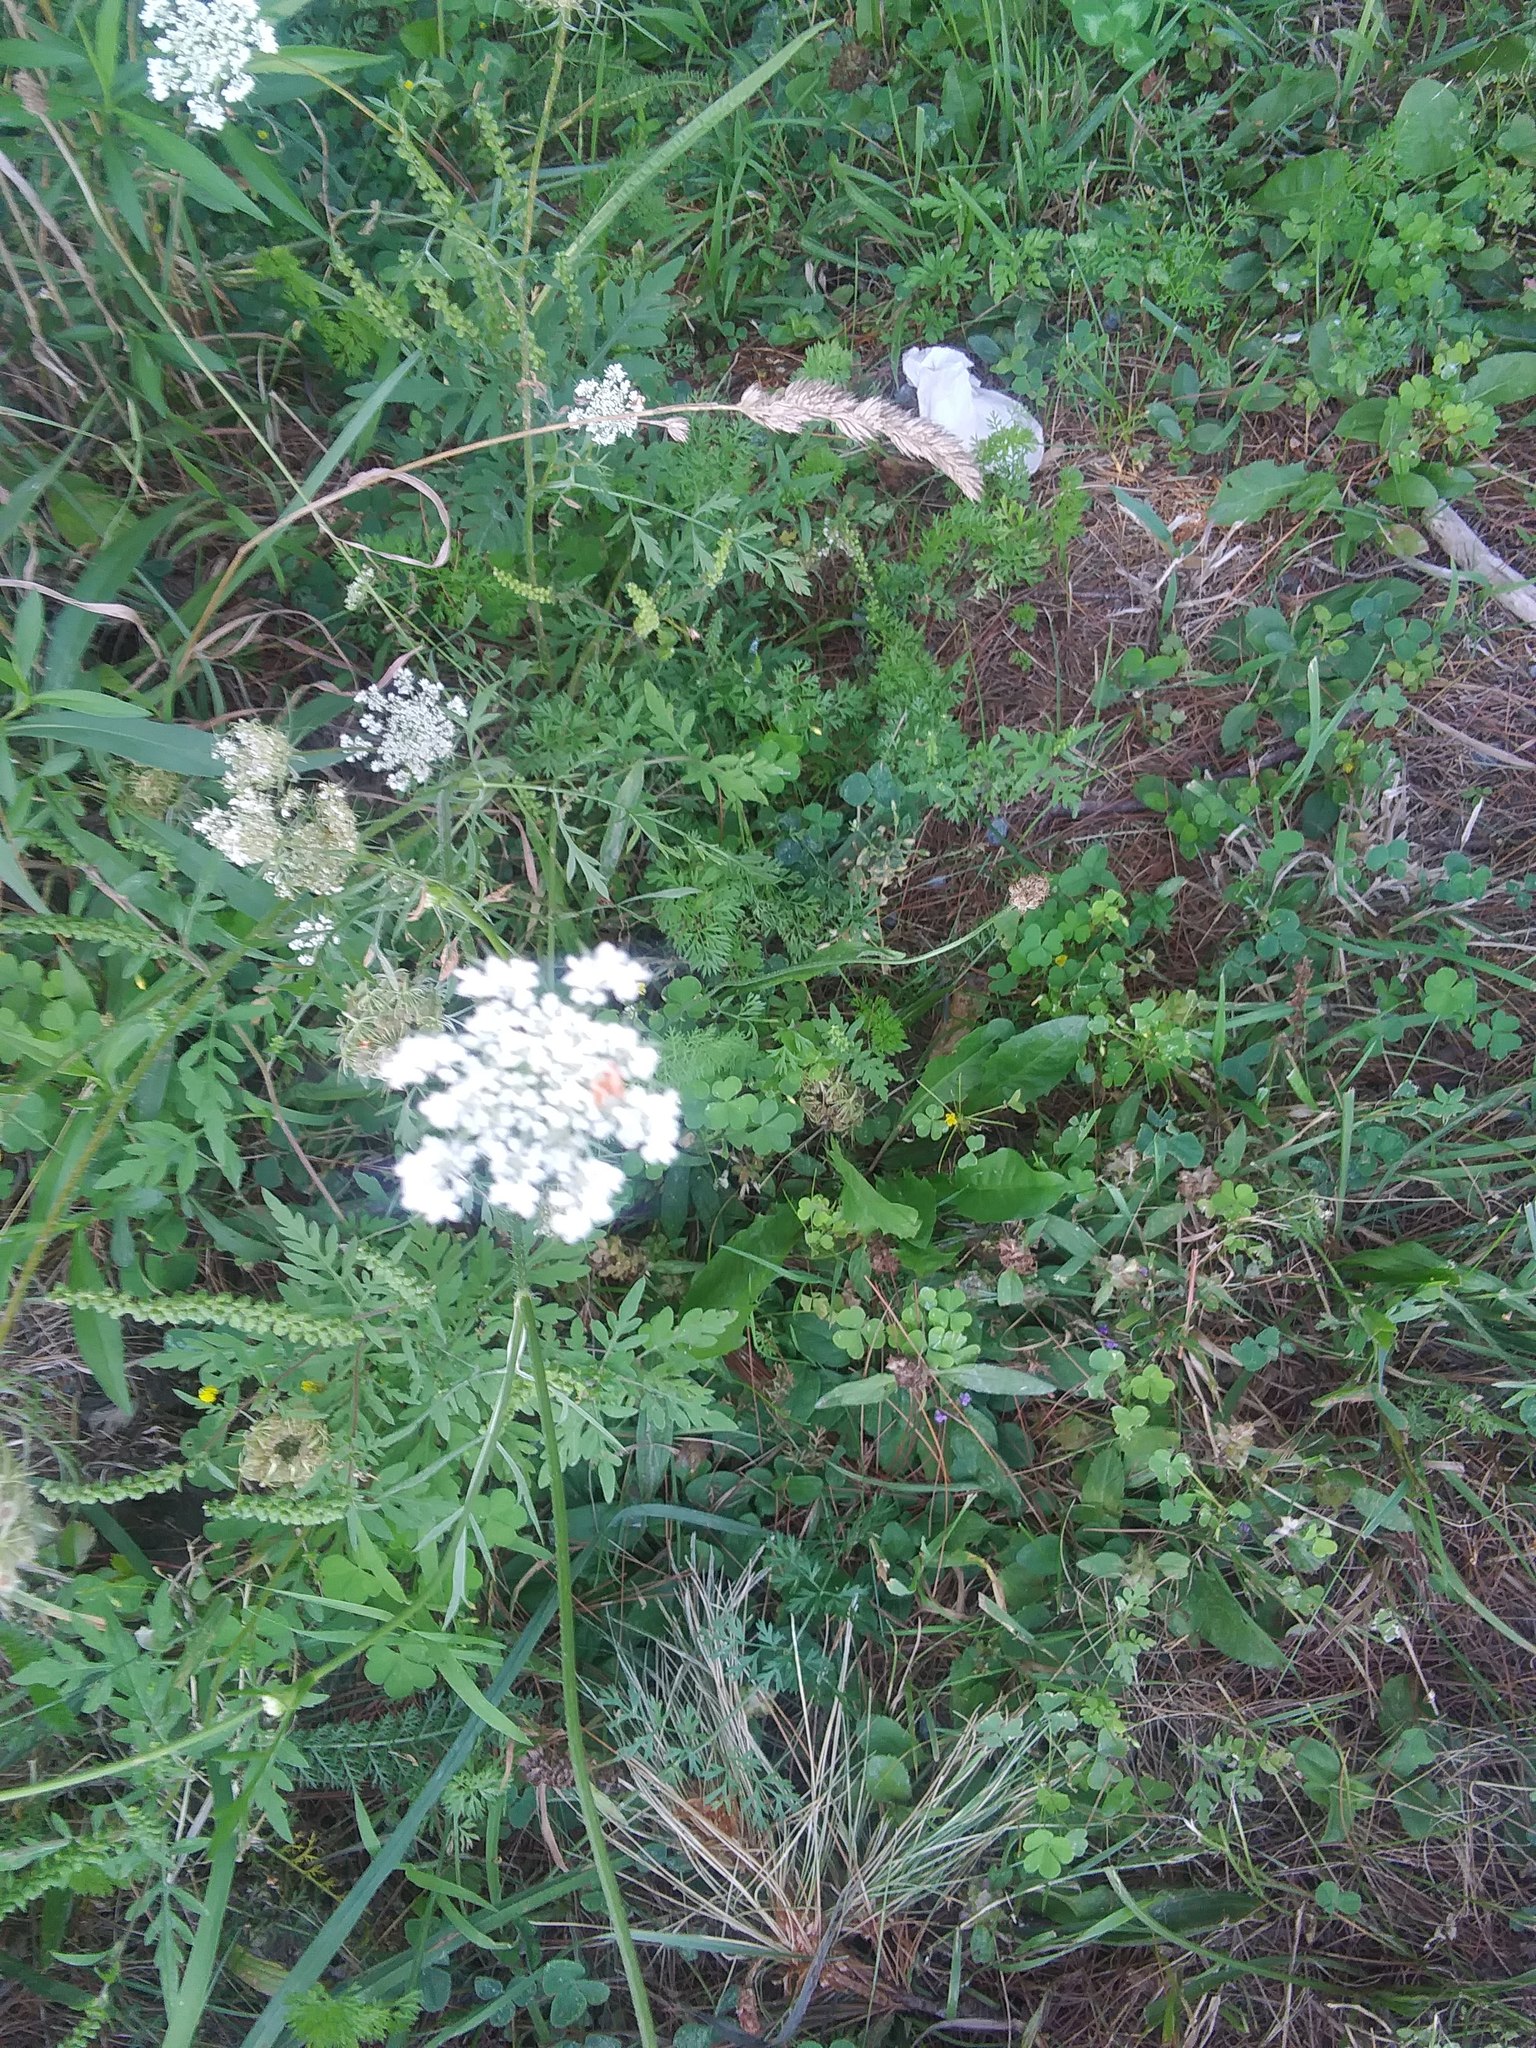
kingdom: Plantae
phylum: Tracheophyta
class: Magnoliopsida
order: Apiales
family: Apiaceae
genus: Daucus
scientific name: Daucus carota
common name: Wild carrot
